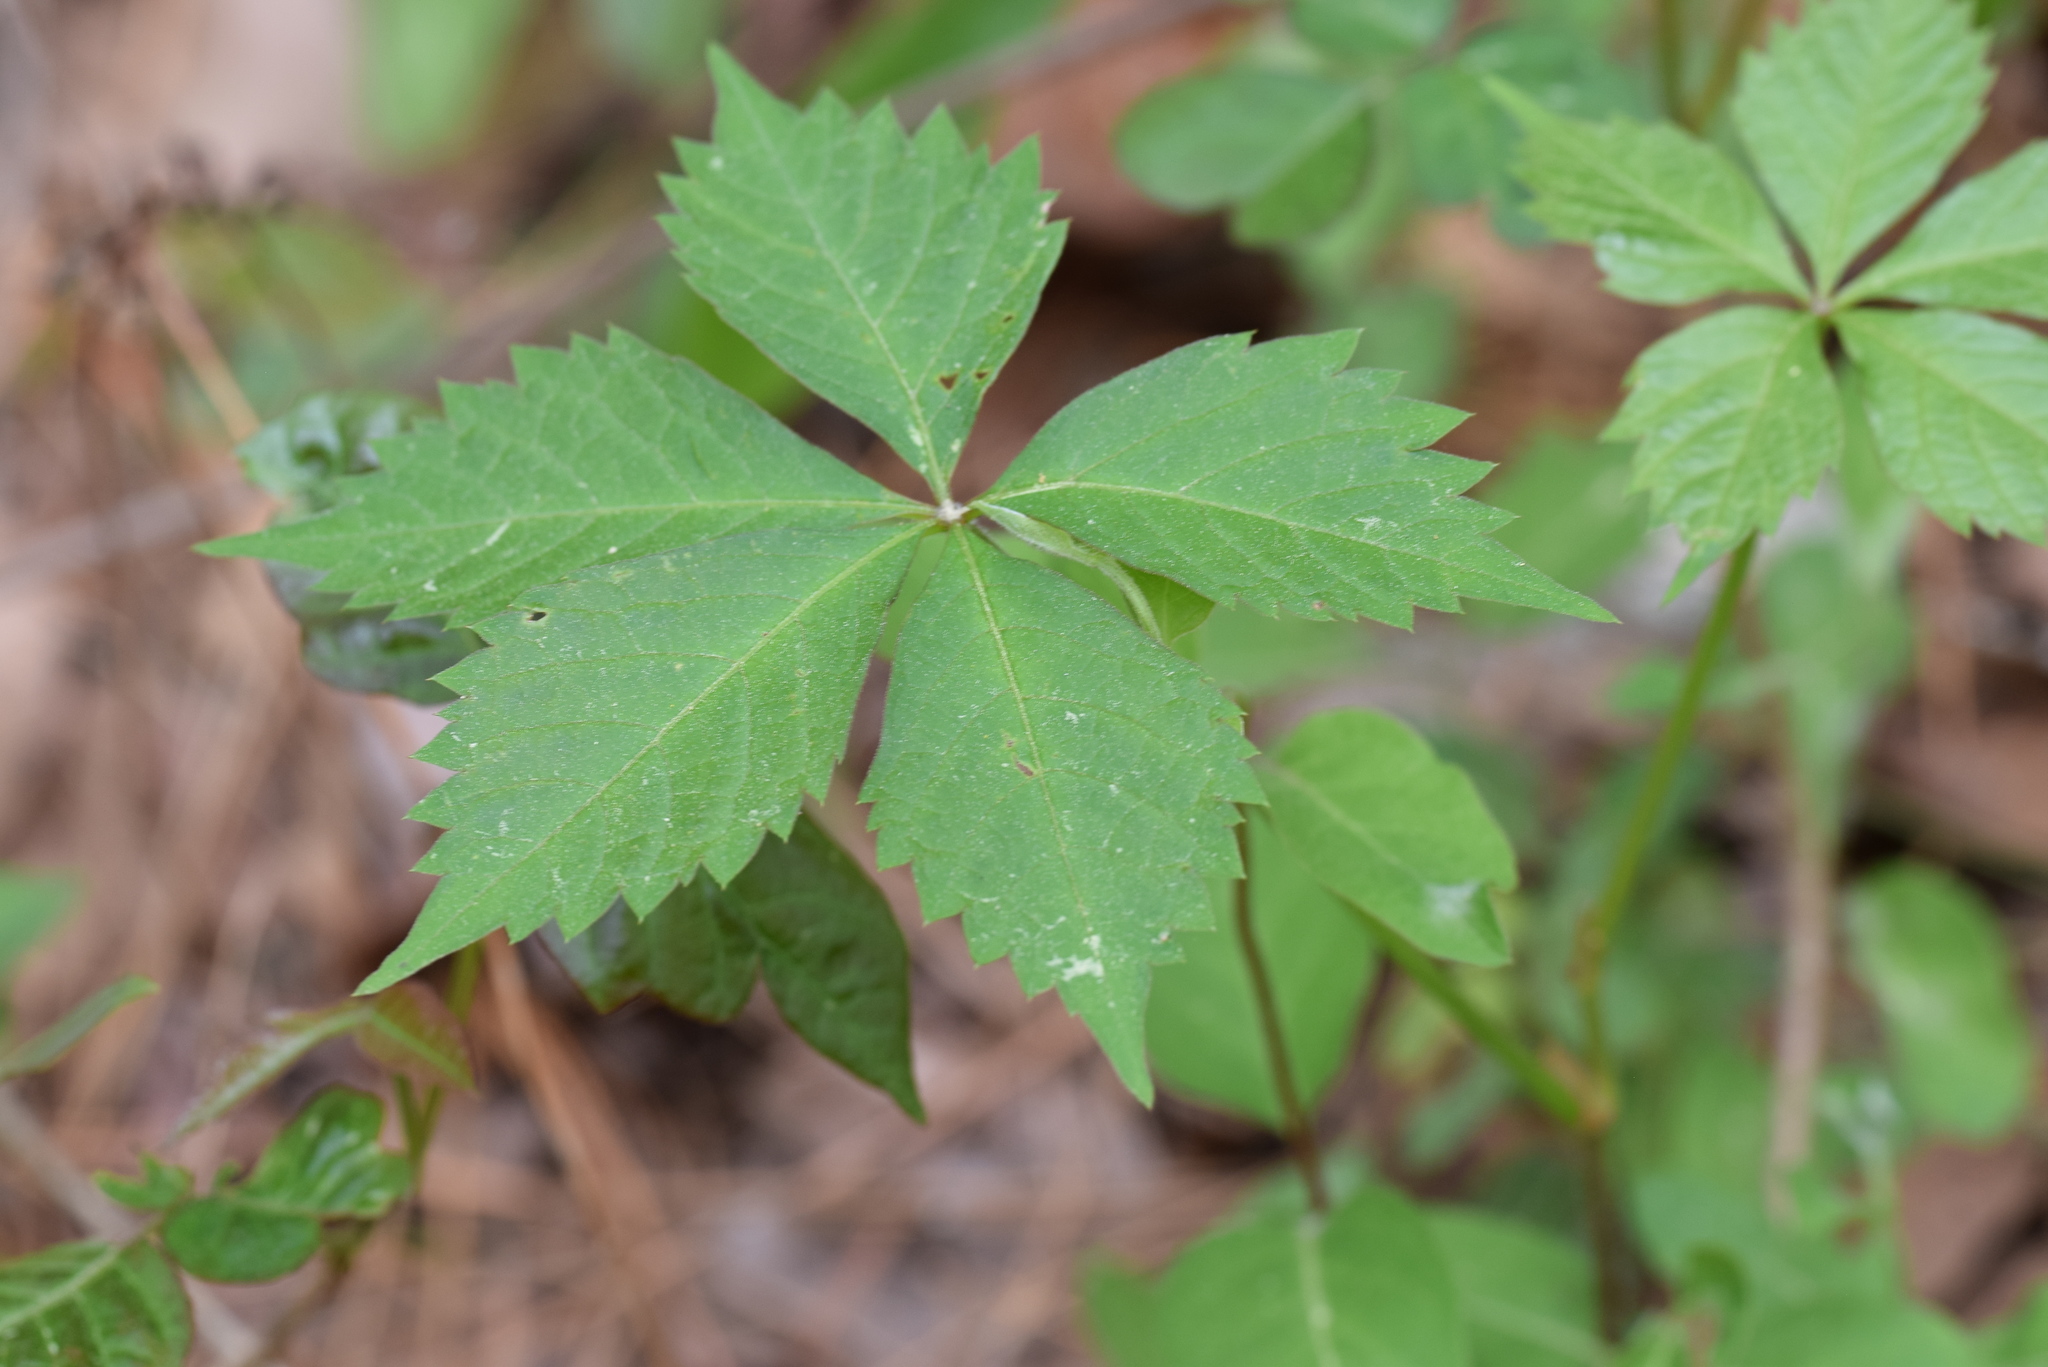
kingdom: Plantae
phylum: Tracheophyta
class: Magnoliopsida
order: Vitales
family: Vitaceae
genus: Parthenocissus
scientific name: Parthenocissus quinquefolia
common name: Virginia-creeper
